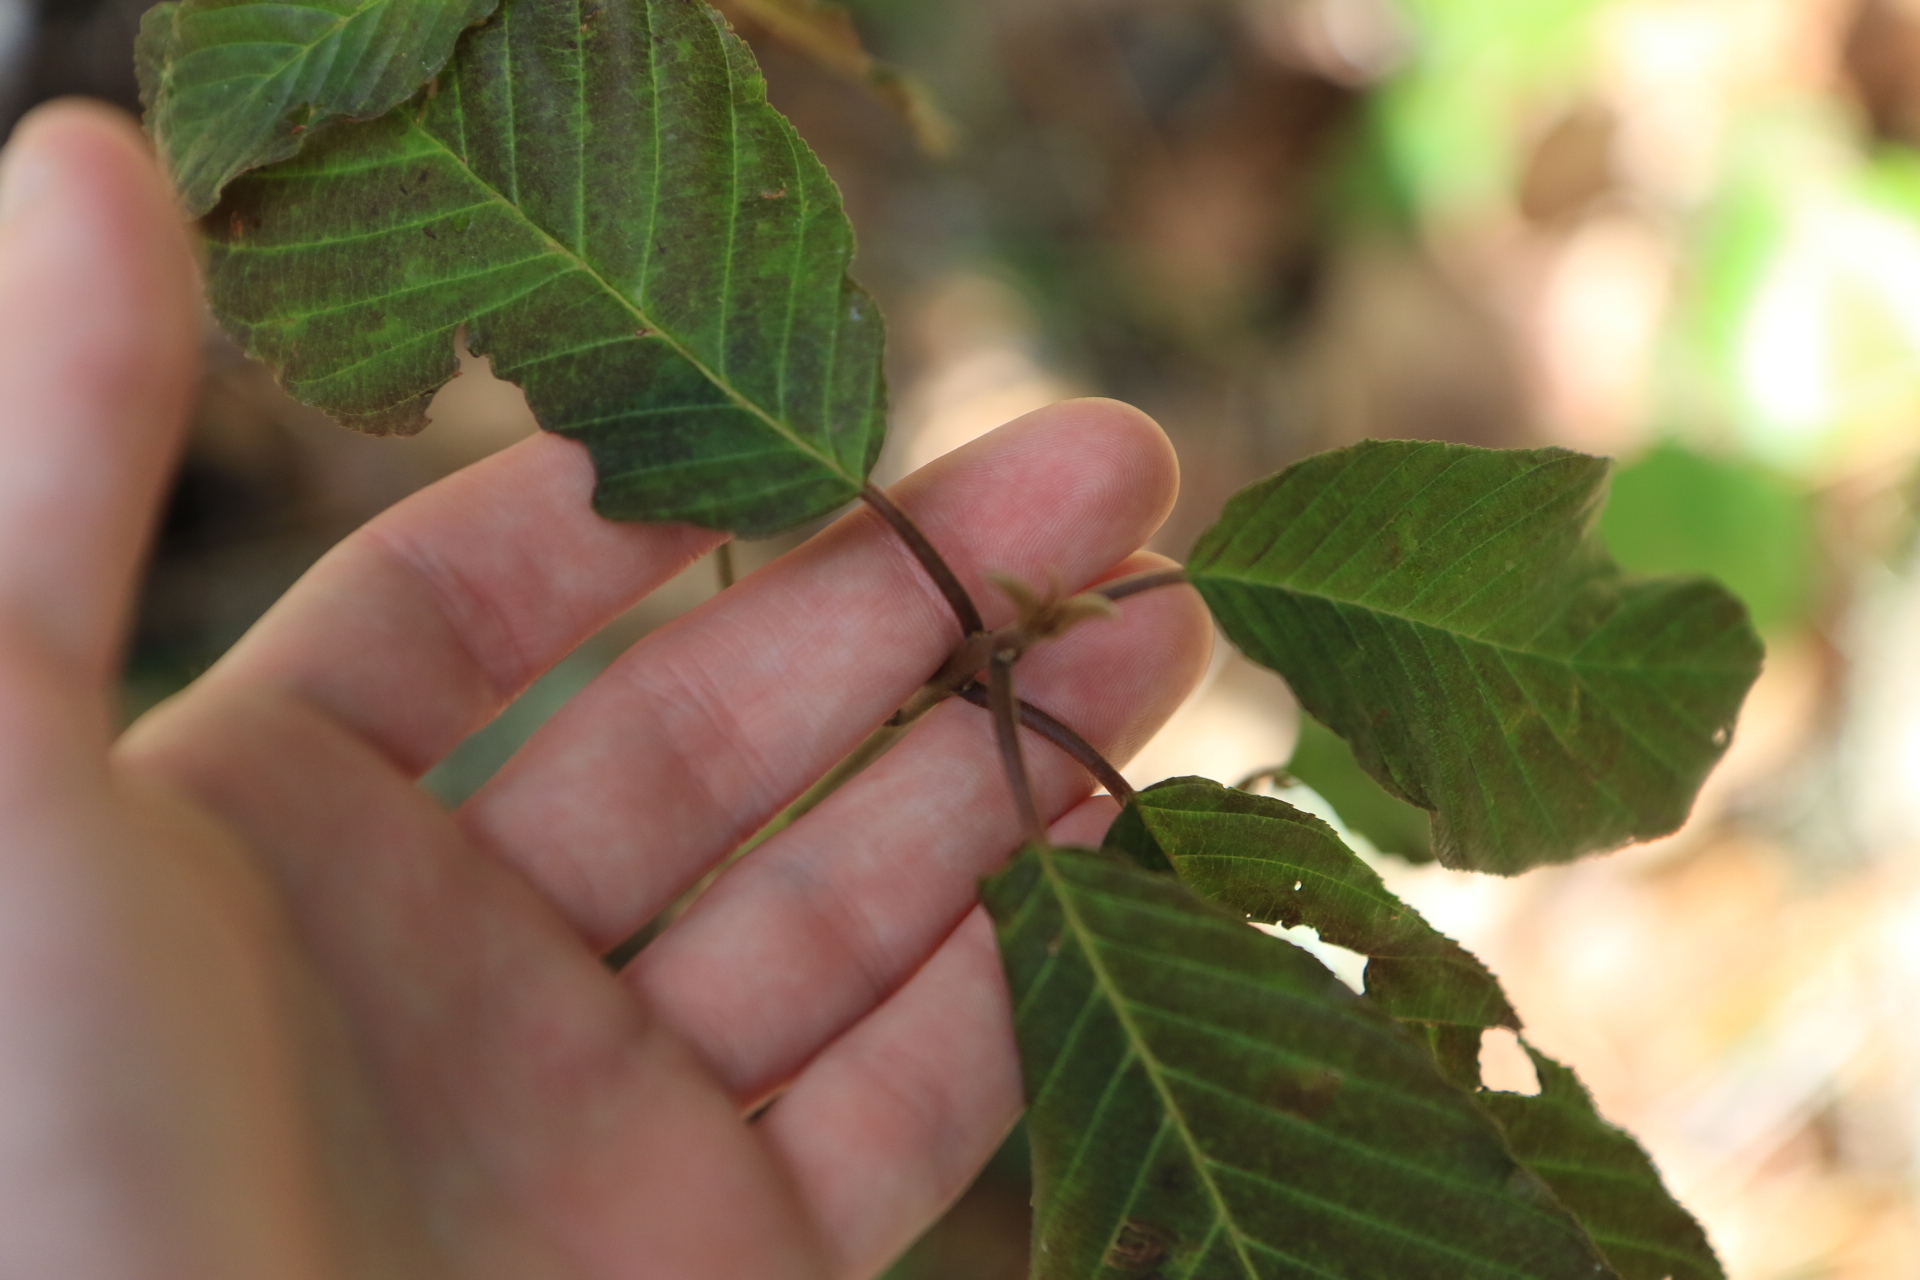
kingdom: Plantae
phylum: Tracheophyta
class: Magnoliopsida
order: Rosales
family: Rhamnaceae
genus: Frangula
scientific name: Frangula purshiana
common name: Cascara buckthorn
